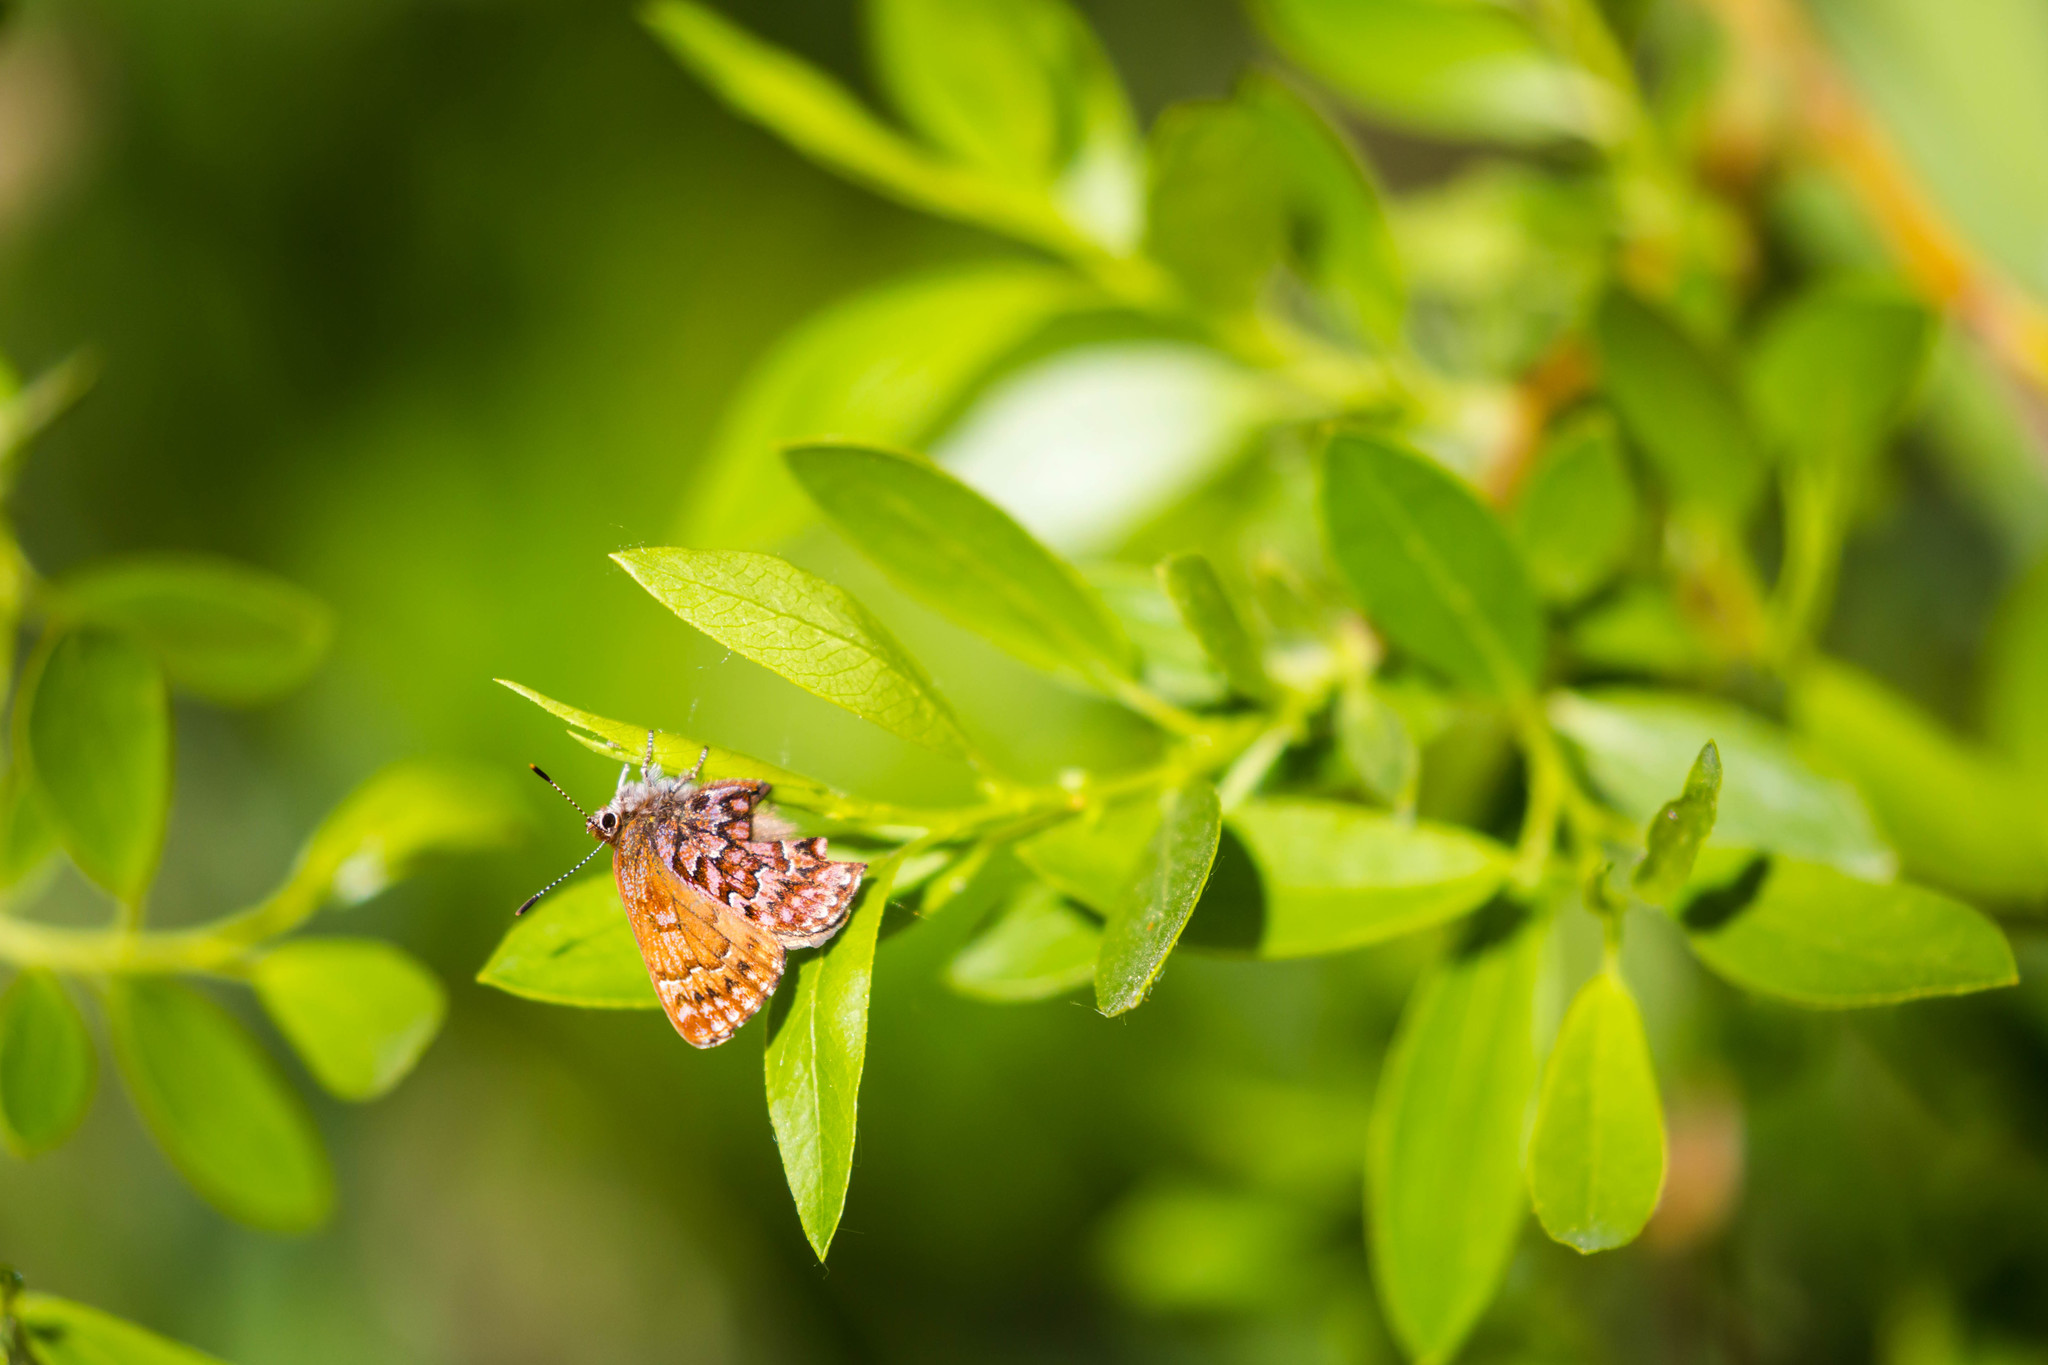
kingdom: Animalia
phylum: Arthropoda
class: Insecta
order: Lepidoptera
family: Lycaenidae
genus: Incisalia
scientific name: Incisalia eryphon
